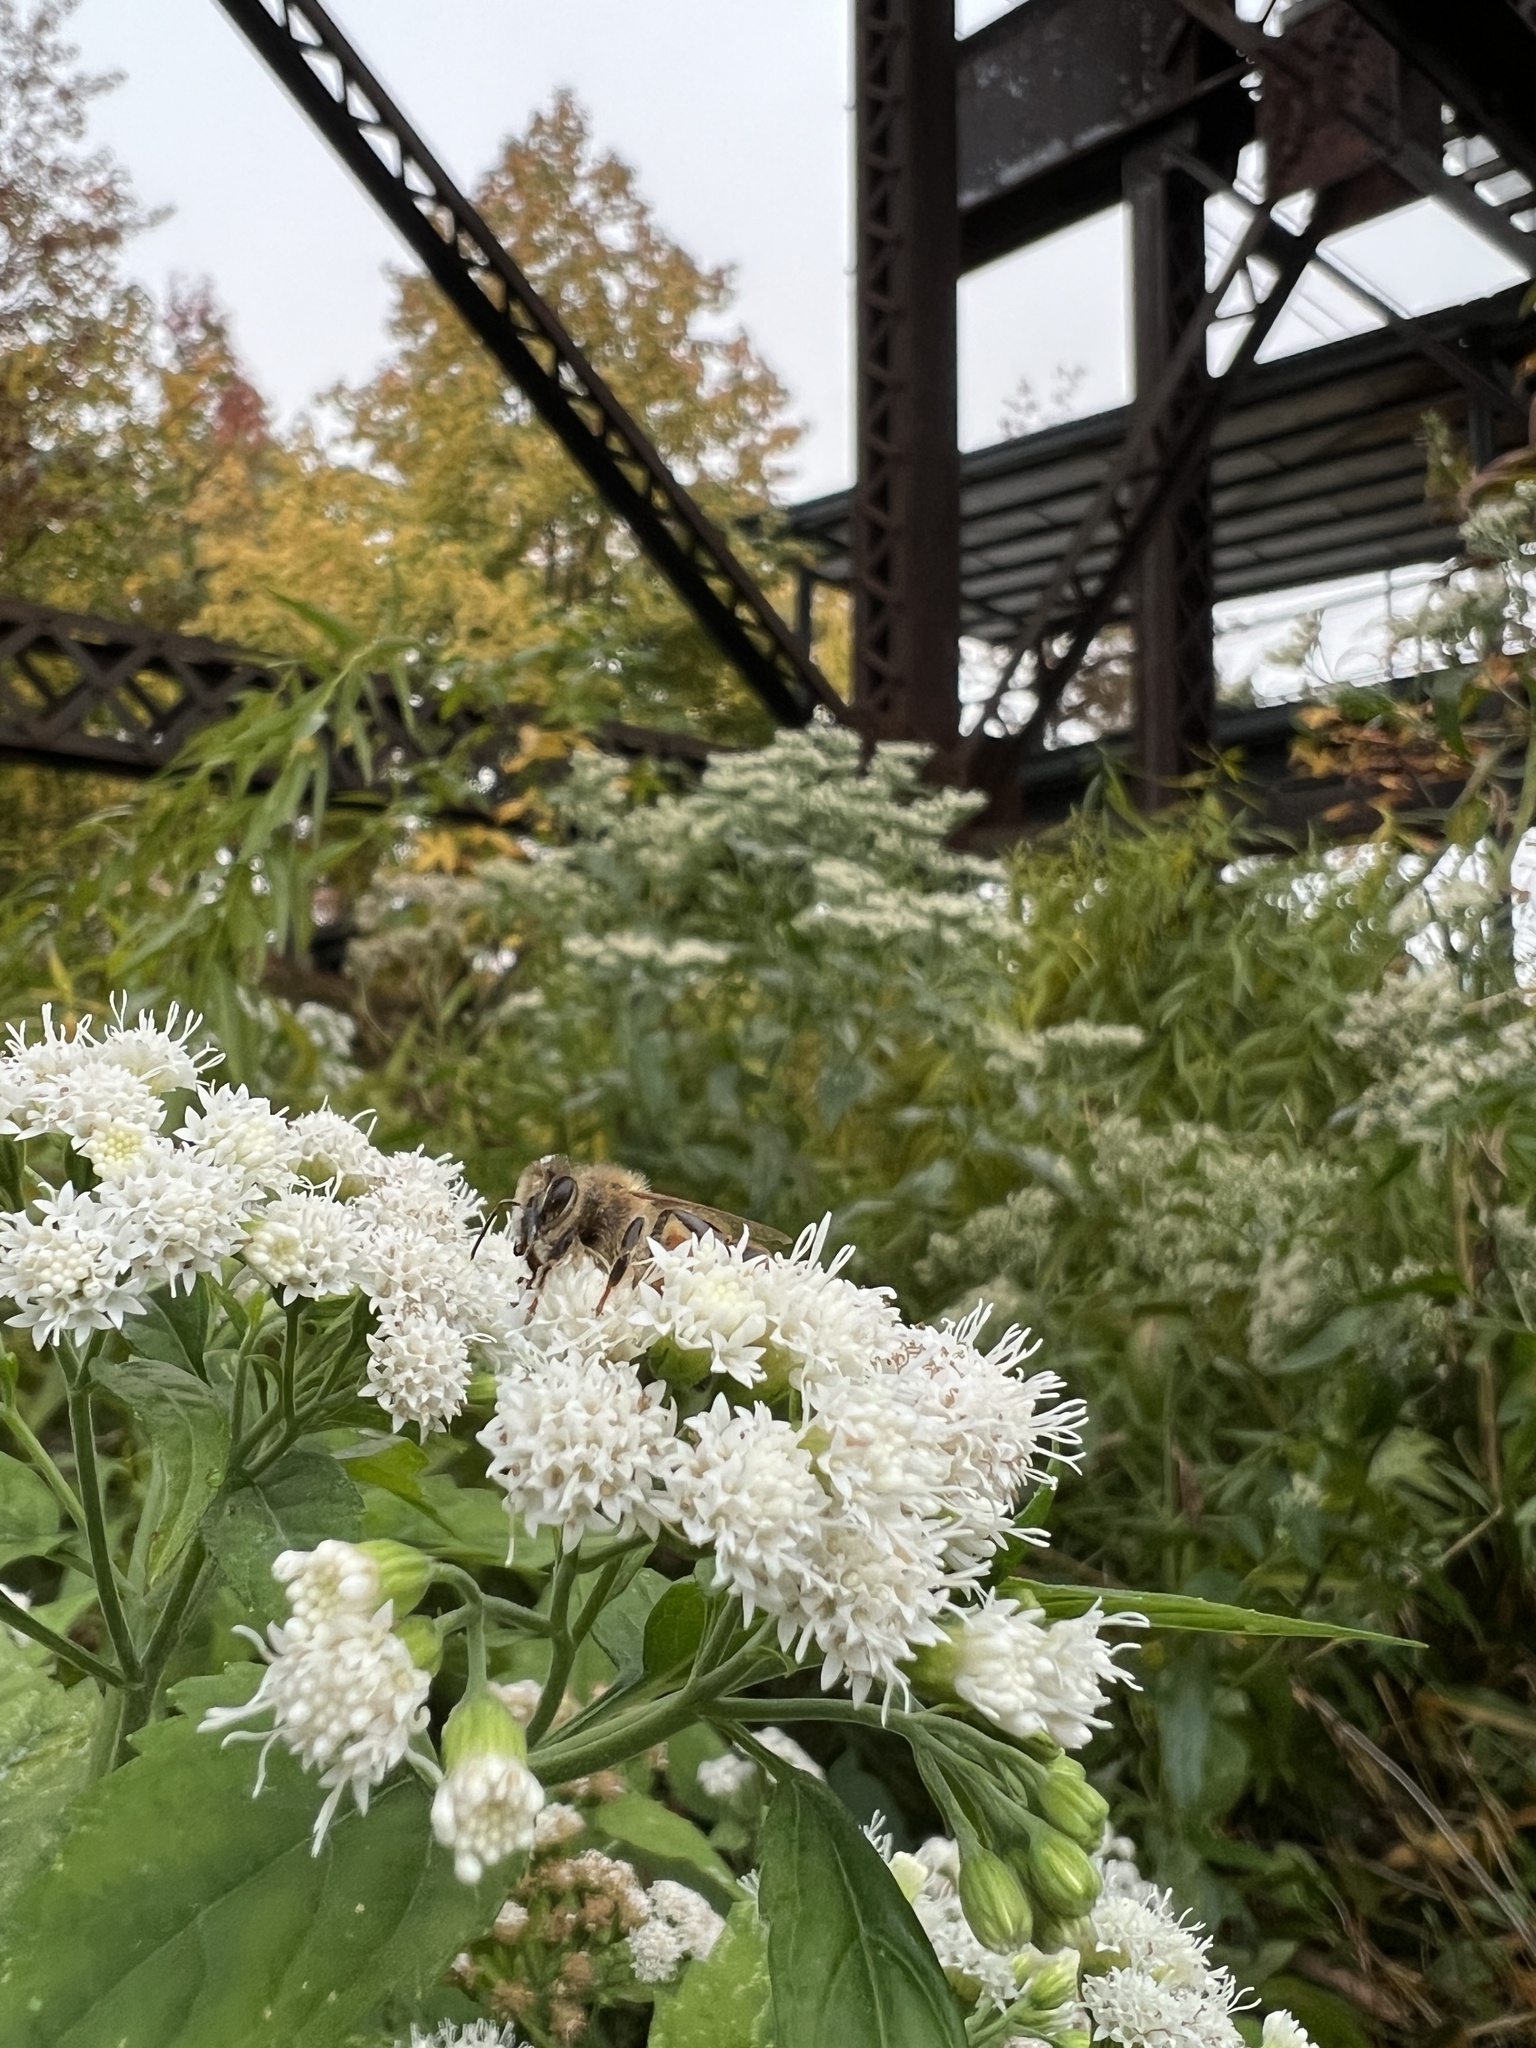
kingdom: Animalia
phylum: Arthropoda
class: Insecta
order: Hymenoptera
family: Apidae
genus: Apis
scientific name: Apis mellifera
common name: Honey bee
